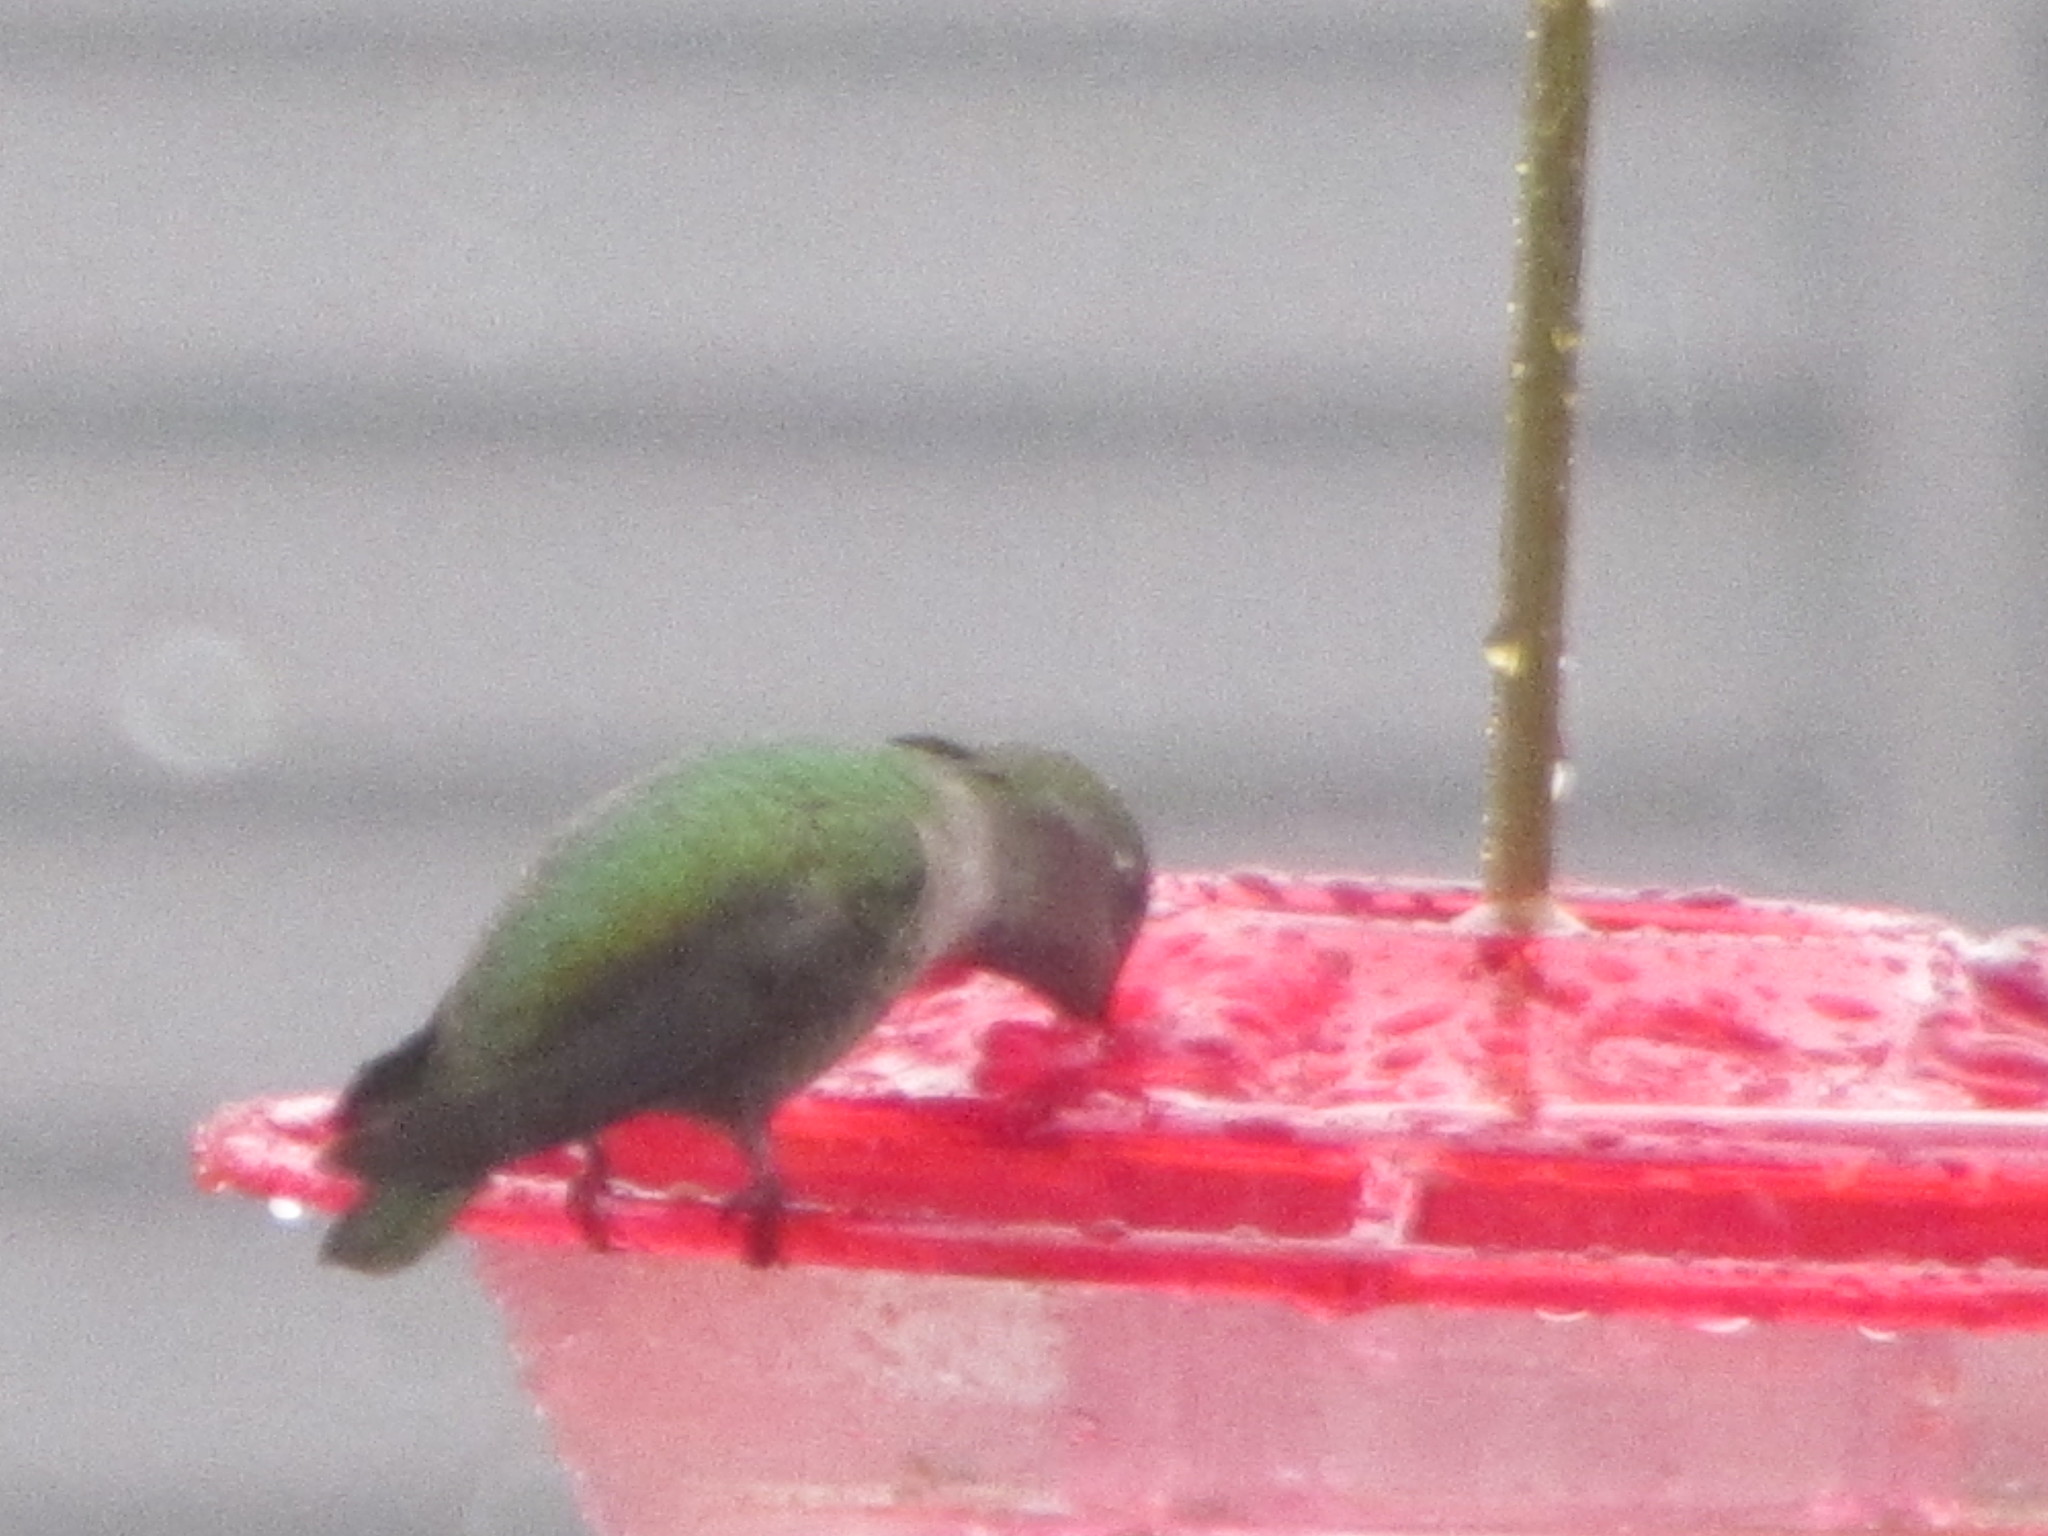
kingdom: Animalia
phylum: Chordata
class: Aves
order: Apodiformes
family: Trochilidae
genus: Calypte
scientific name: Calypte anna
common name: Anna's hummingbird
